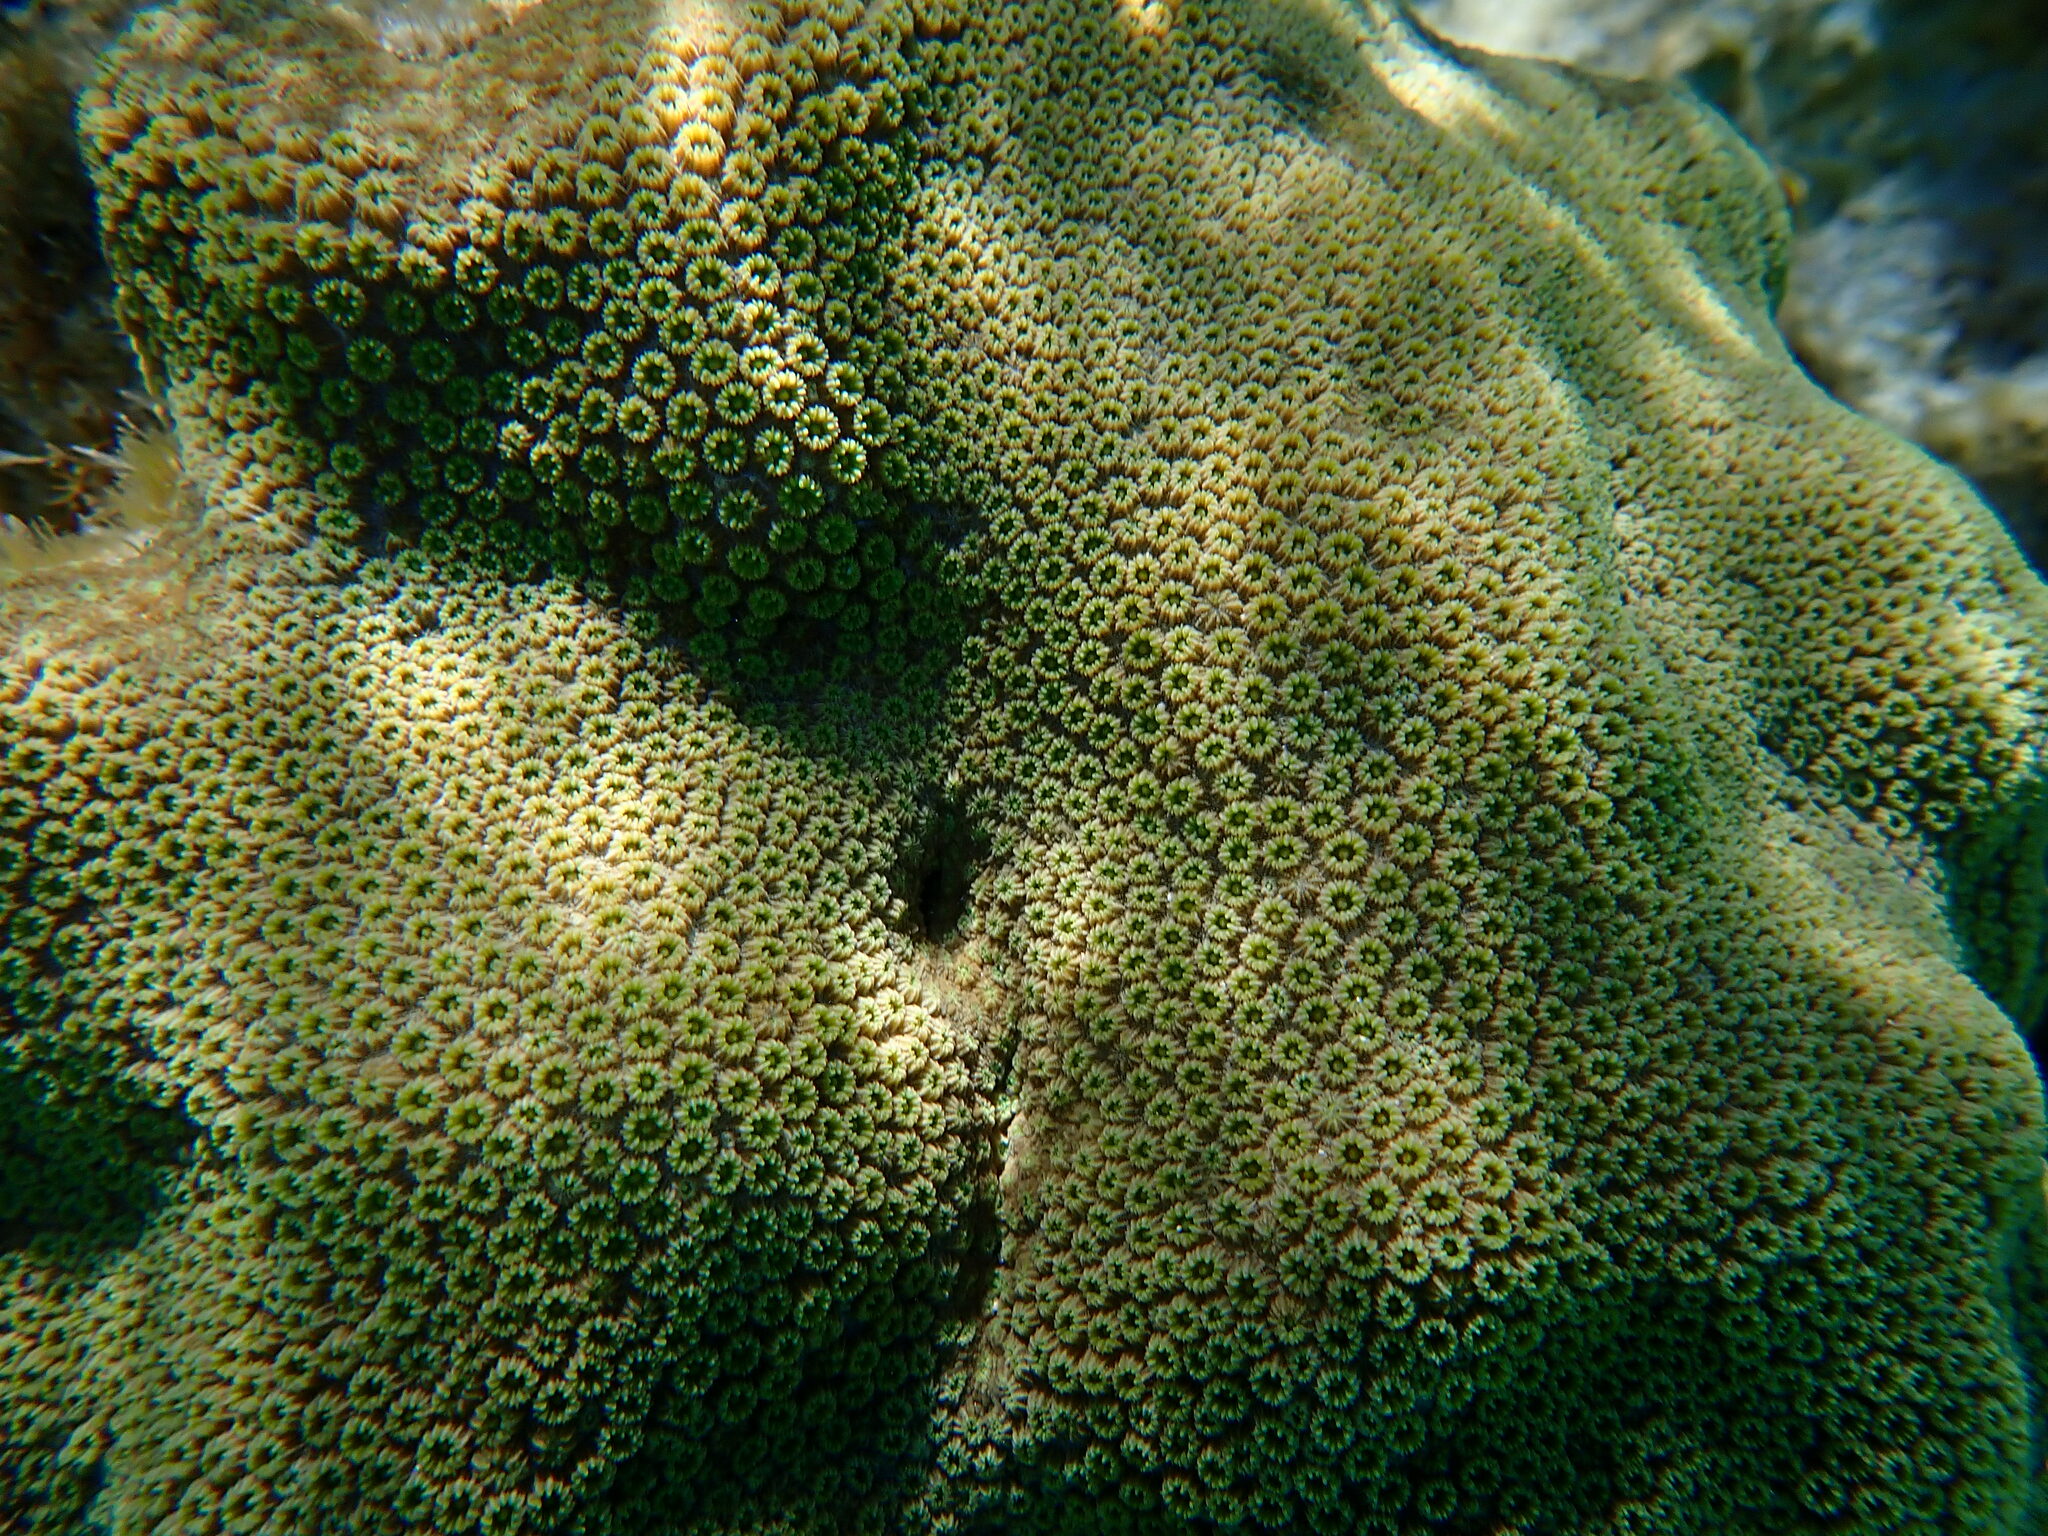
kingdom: Animalia
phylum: Cnidaria
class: Anthozoa
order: Scleractinia
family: Merulinidae
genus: Orbicella
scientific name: Orbicella annularis
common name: Boulder star coral
